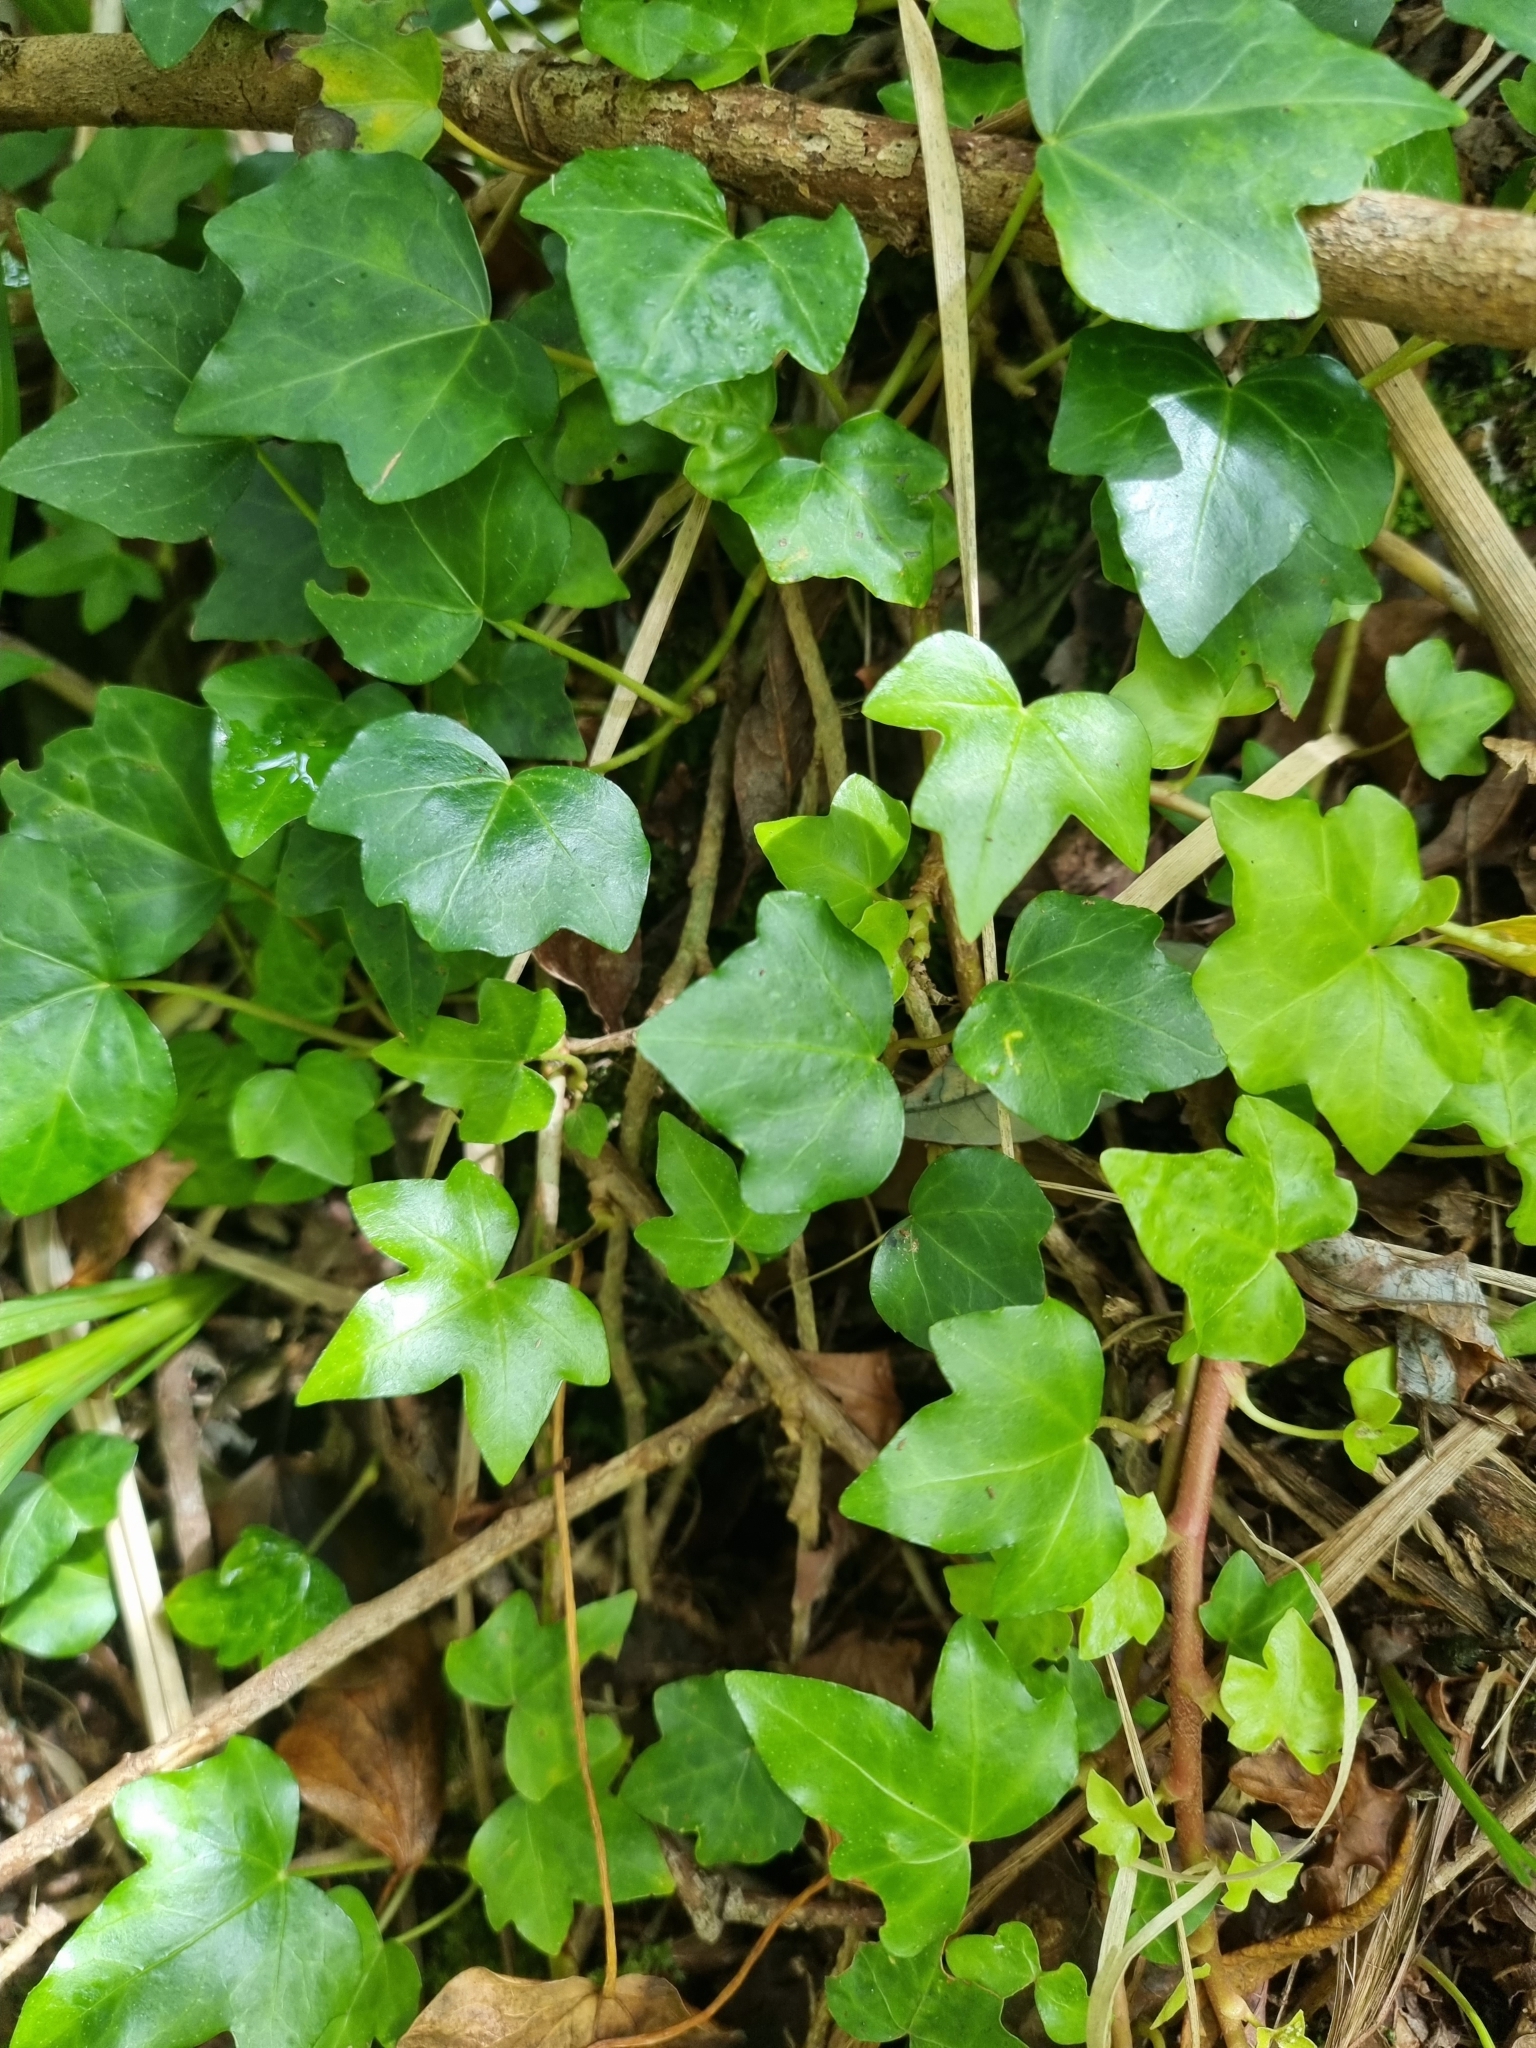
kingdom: Plantae
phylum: Tracheophyta
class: Magnoliopsida
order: Apiales
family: Araliaceae
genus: Hedera
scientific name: Hedera maderensis
